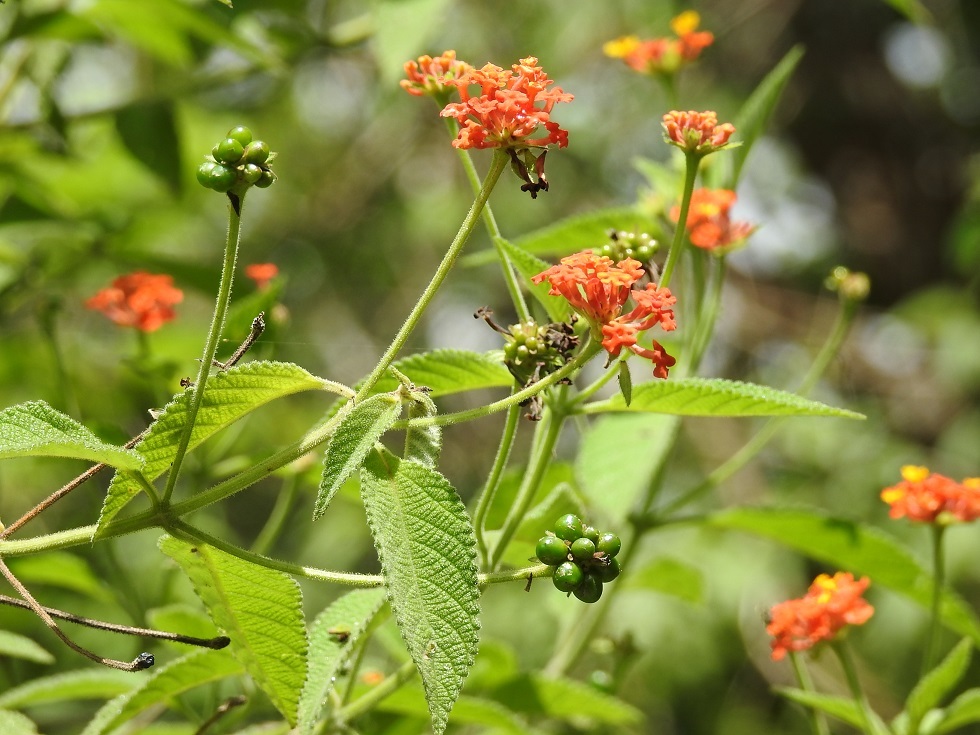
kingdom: Plantae
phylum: Tracheophyta
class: Magnoliopsida
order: Lamiales
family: Verbenaceae
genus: Lantana
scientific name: Lantana camara
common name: Lantana
